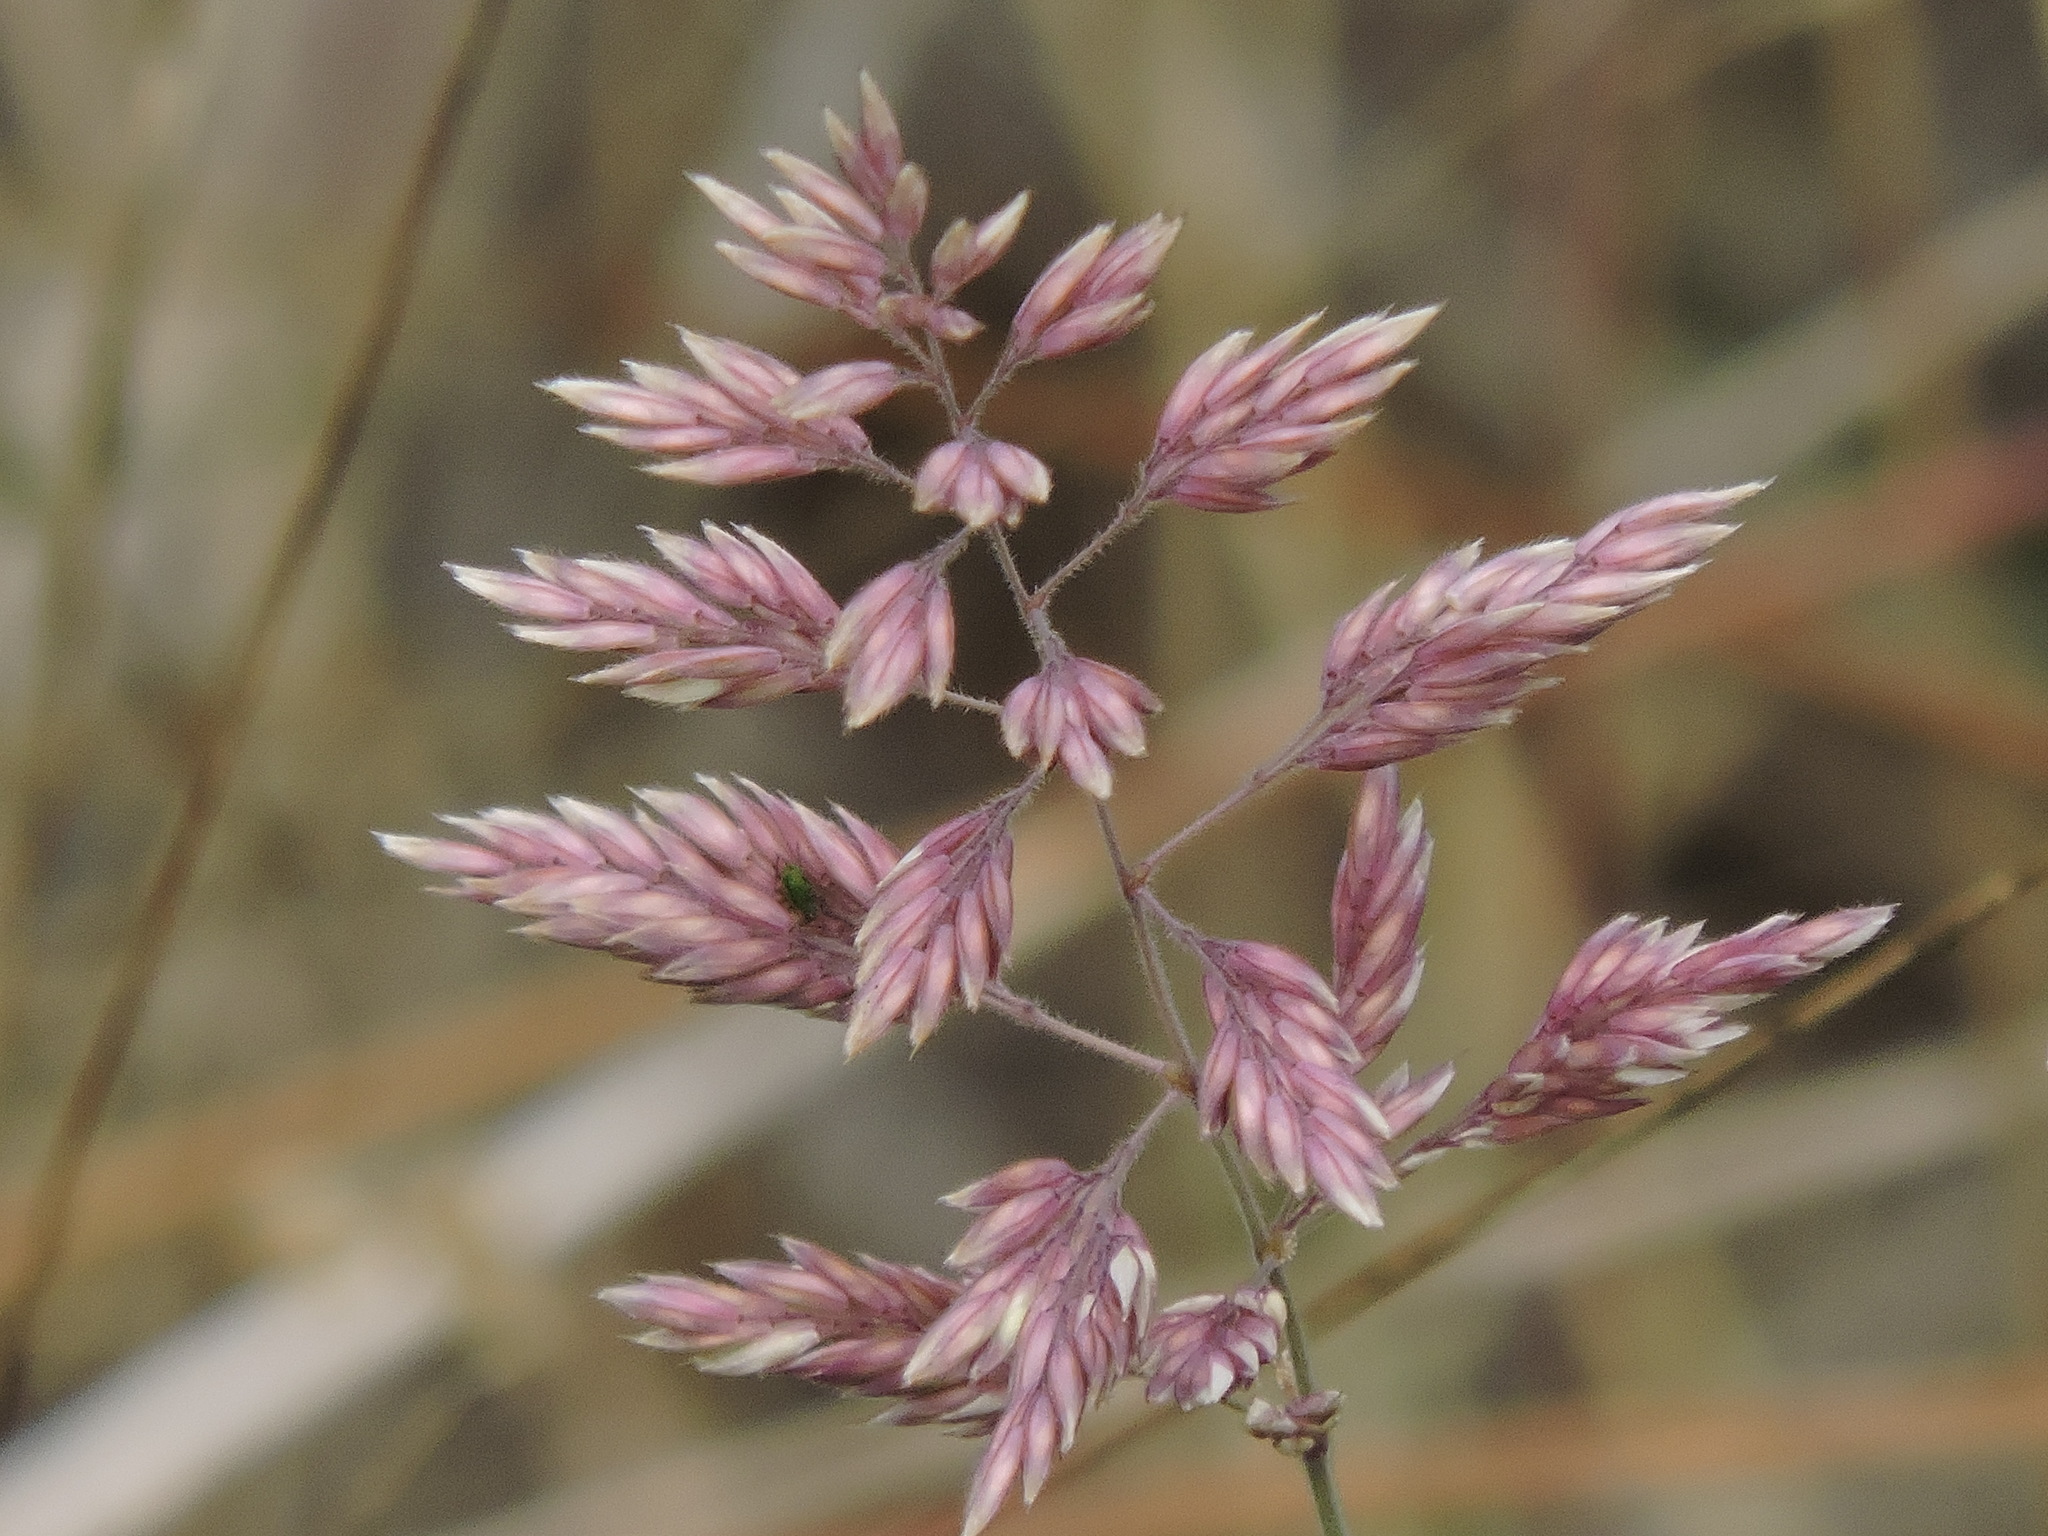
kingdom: Plantae
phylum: Tracheophyta
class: Liliopsida
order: Poales
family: Poaceae
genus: Holcus
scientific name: Holcus lanatus
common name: Yorkshire-fog
